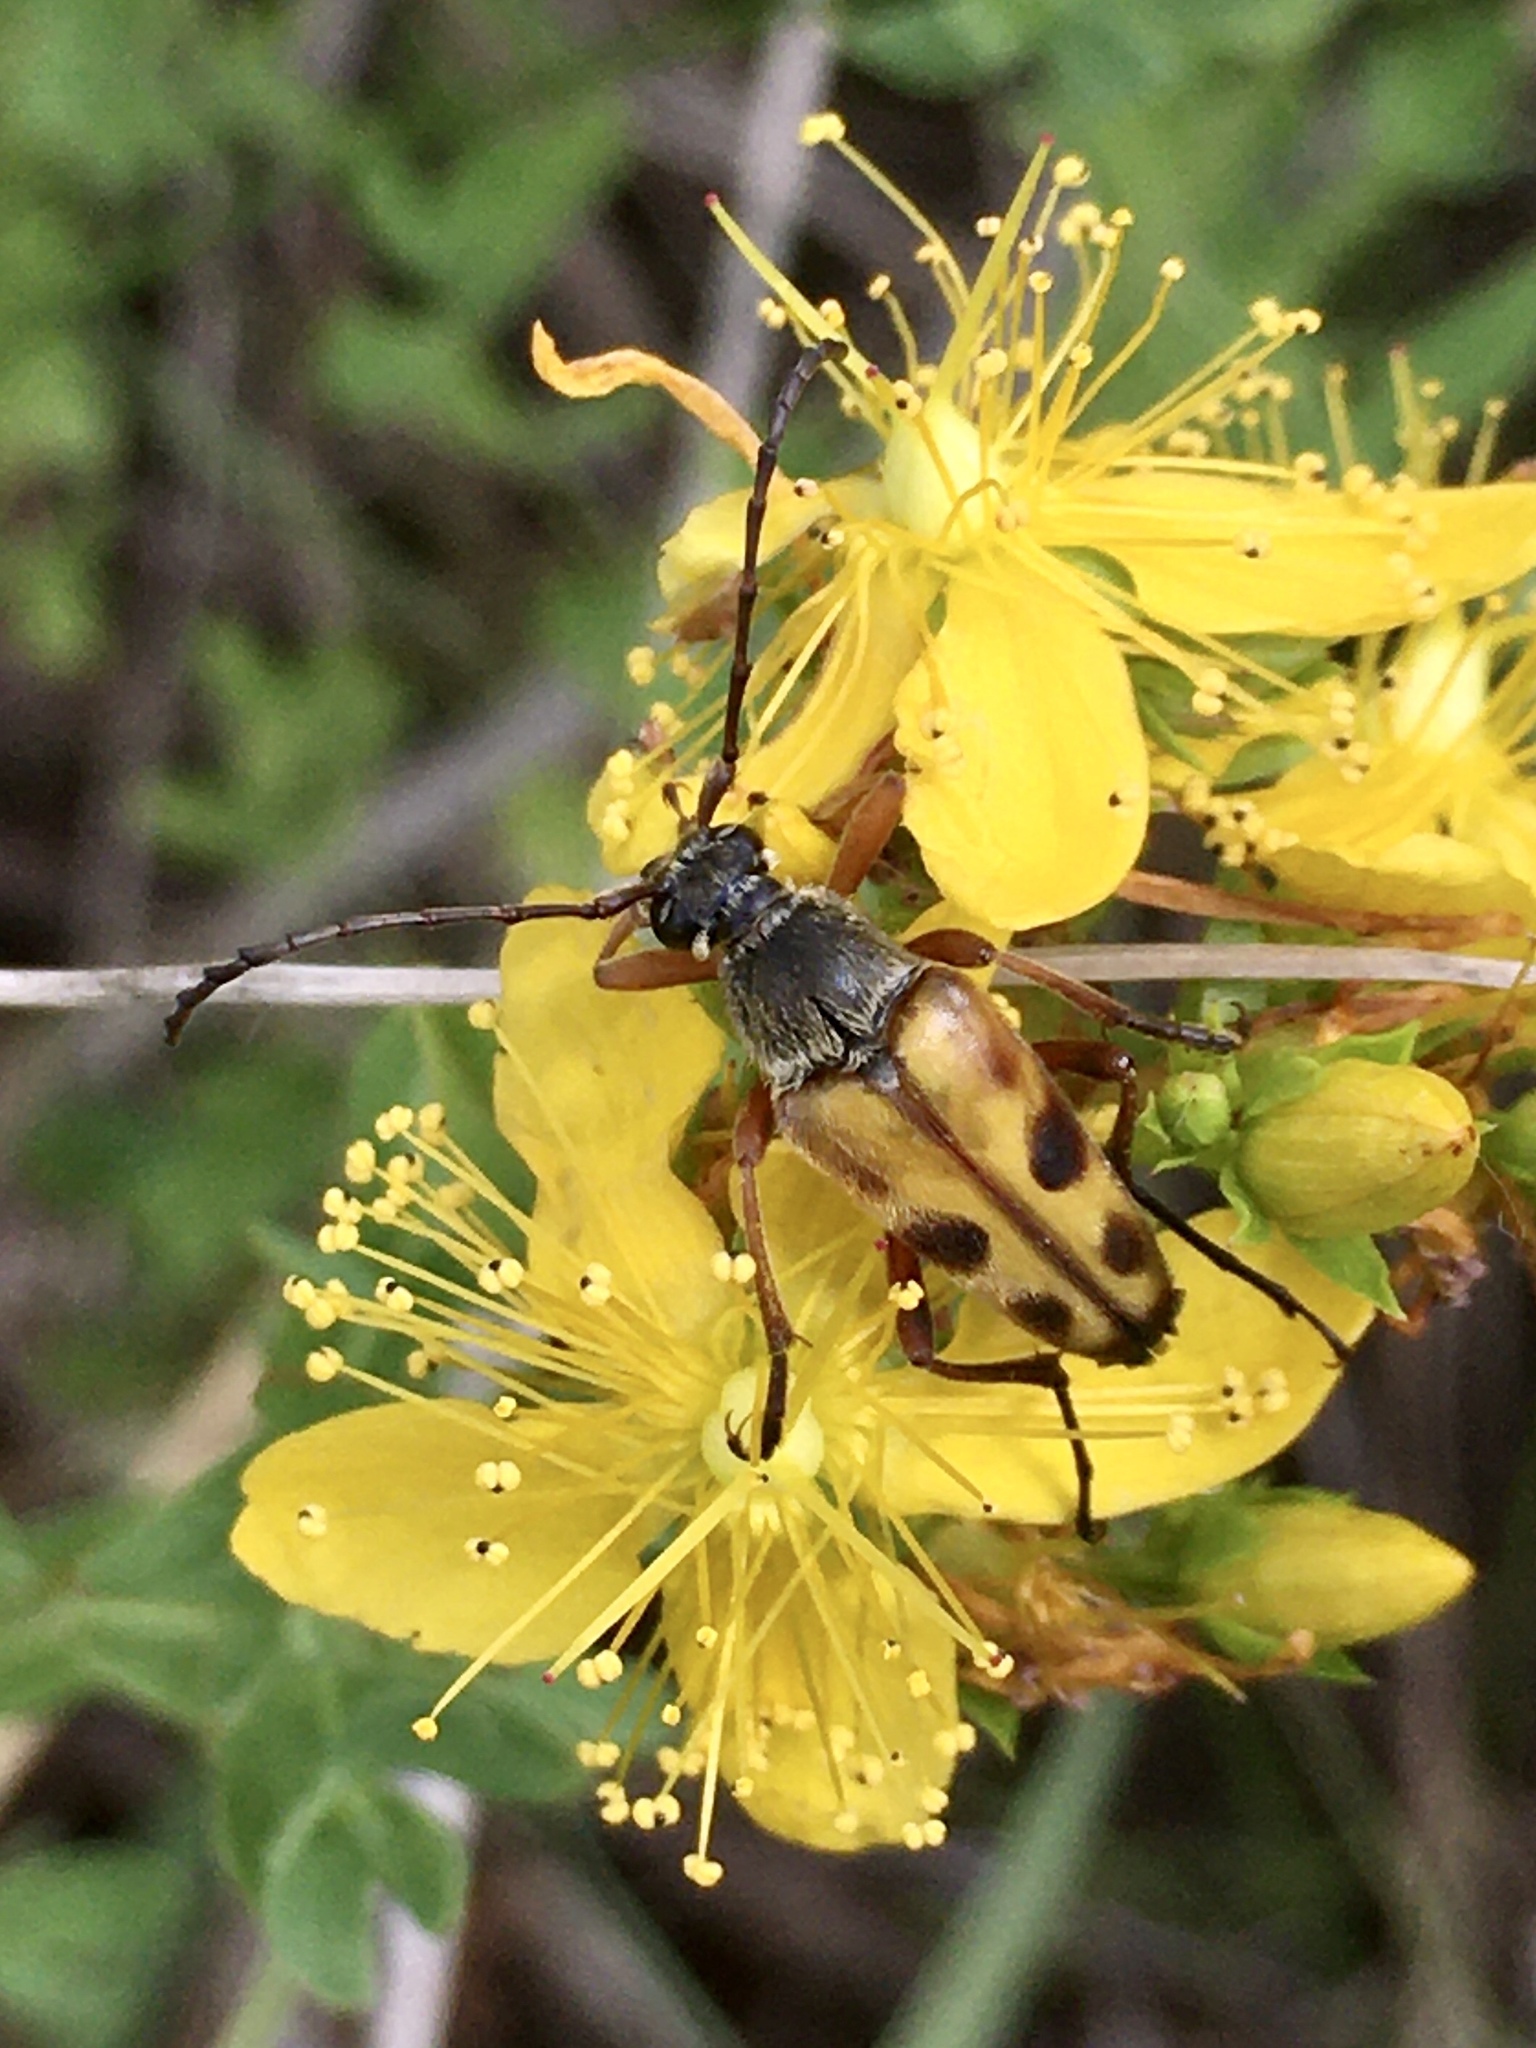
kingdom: Animalia
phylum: Arthropoda
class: Insecta
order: Coleoptera
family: Cerambycidae
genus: Typocerus
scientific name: Typocerus octonotatus
